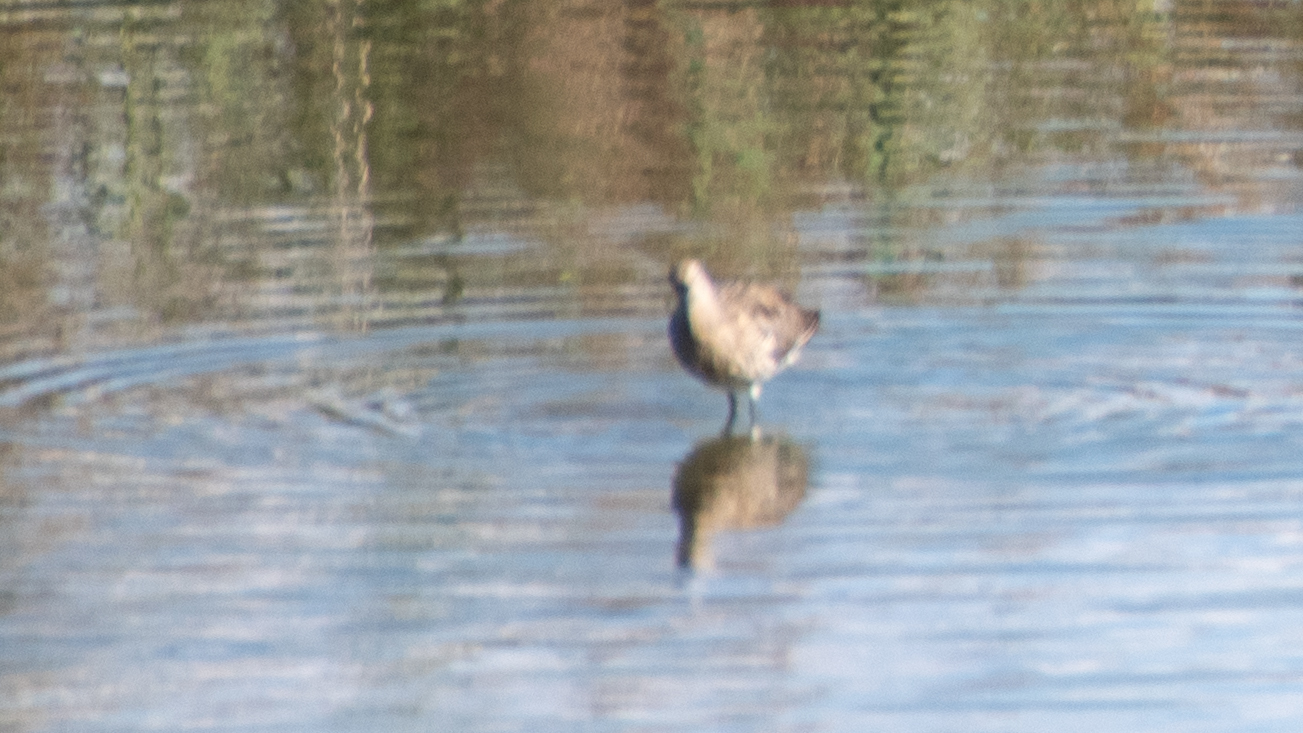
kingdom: Animalia
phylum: Chordata
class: Aves
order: Charadriiformes
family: Scolopacidae
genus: Numenius
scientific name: Numenius arquata
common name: Eurasian curlew
